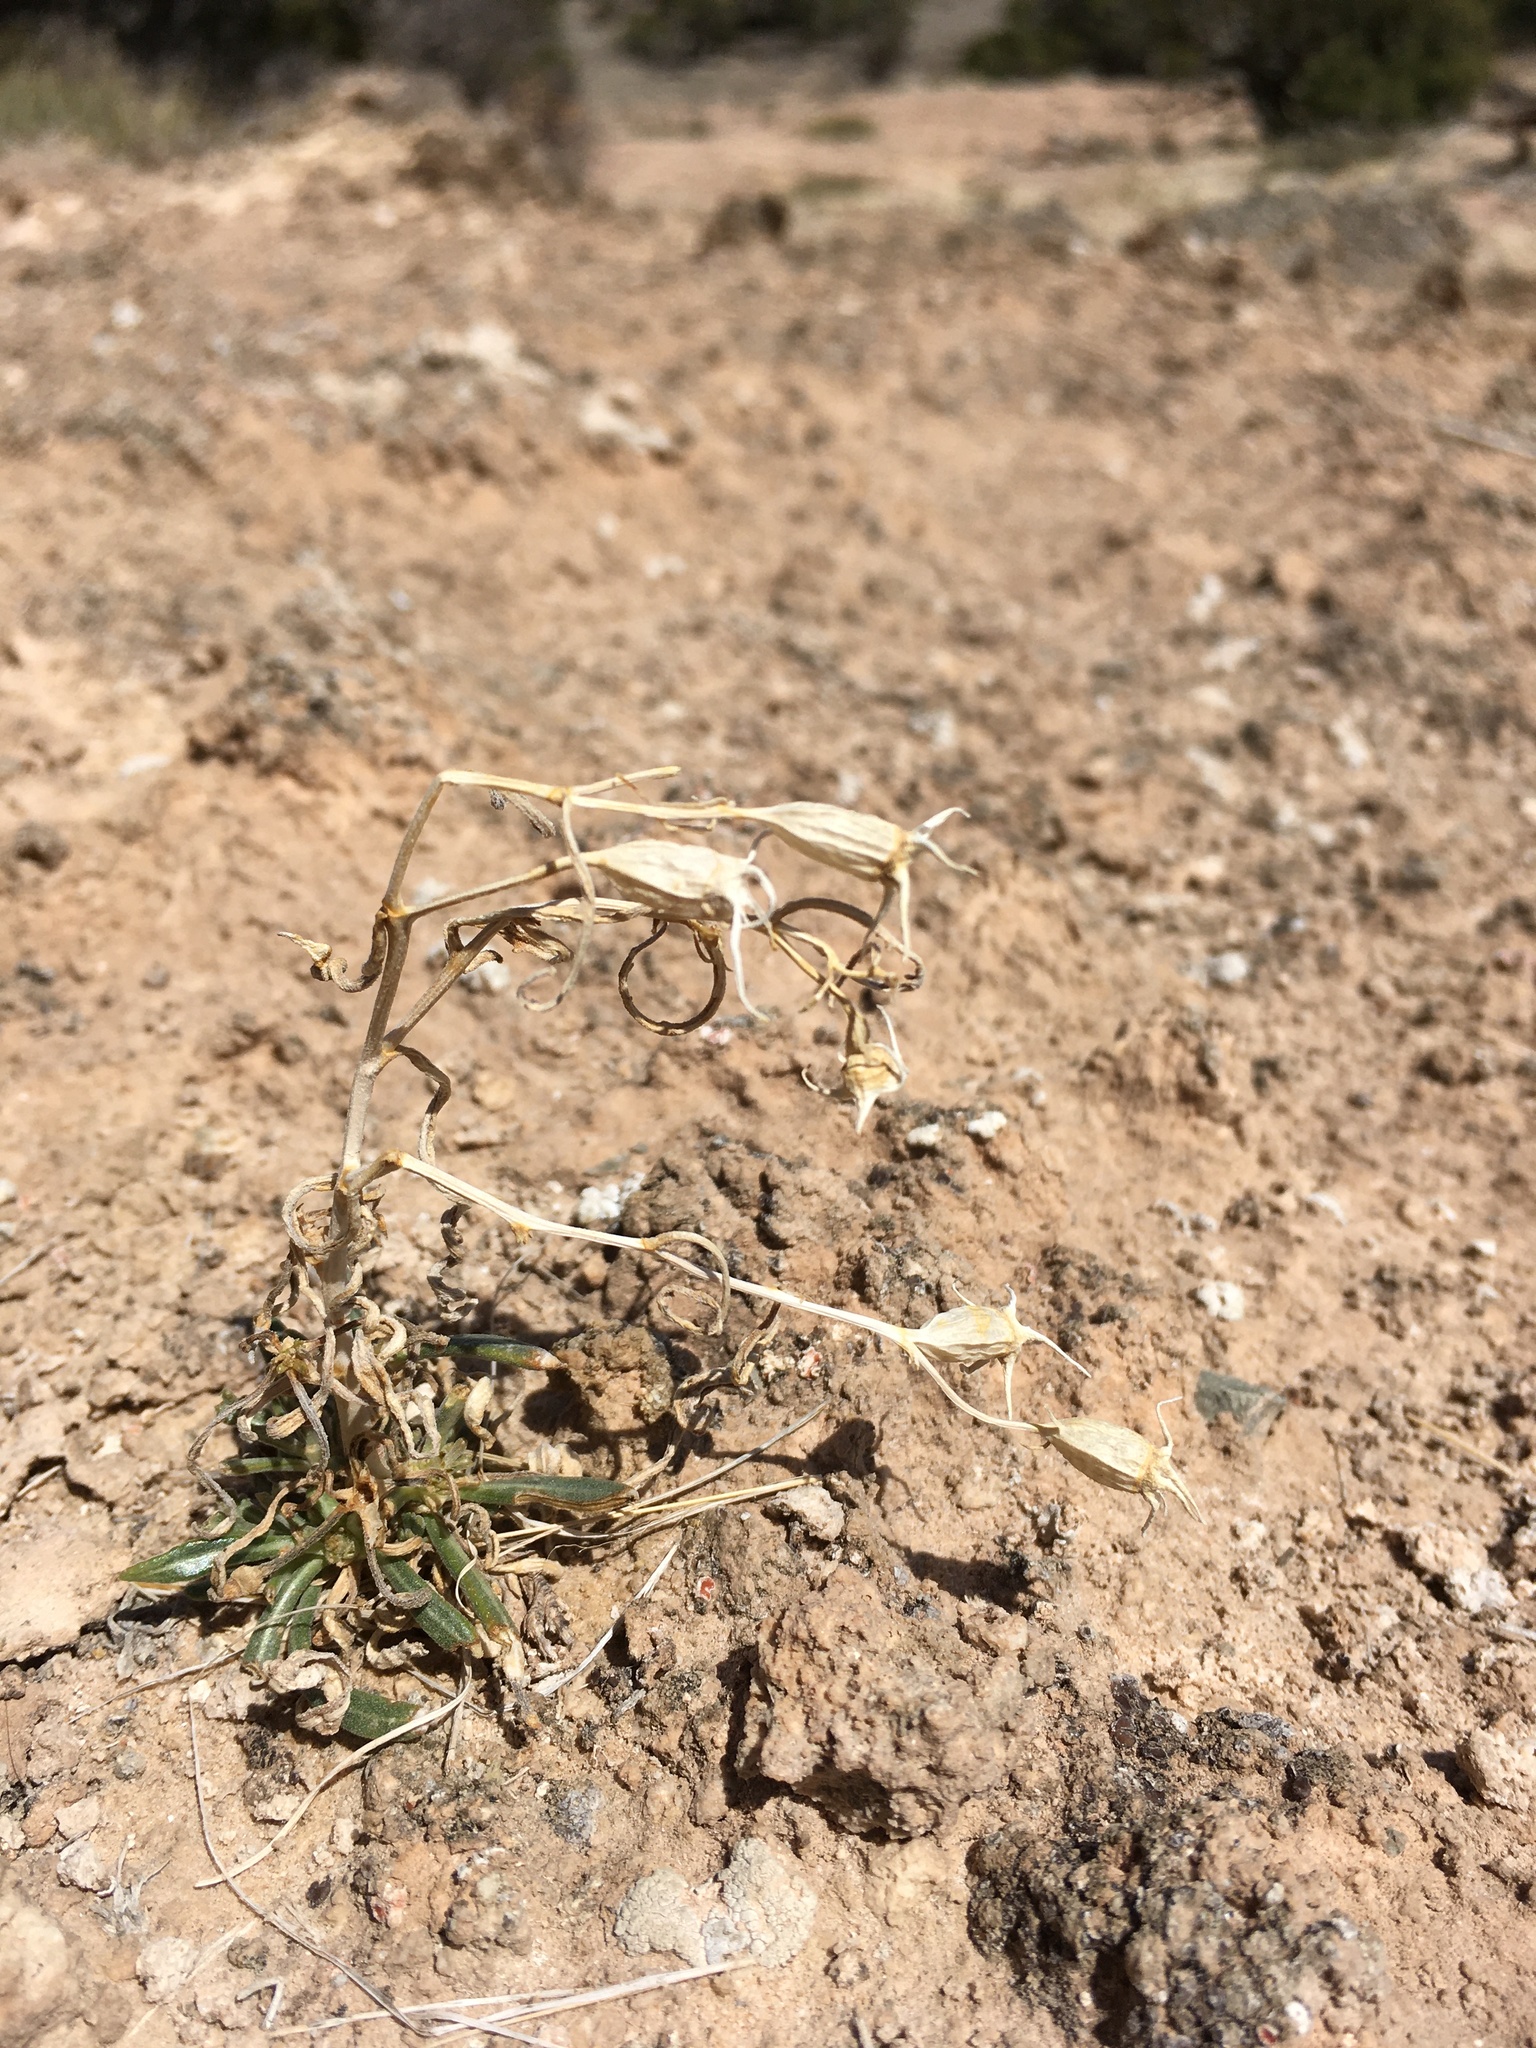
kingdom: Plantae
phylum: Tracheophyta
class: Magnoliopsida
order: Cornales
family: Loasaceae
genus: Mentzelia
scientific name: Mentzelia todiltoensis
